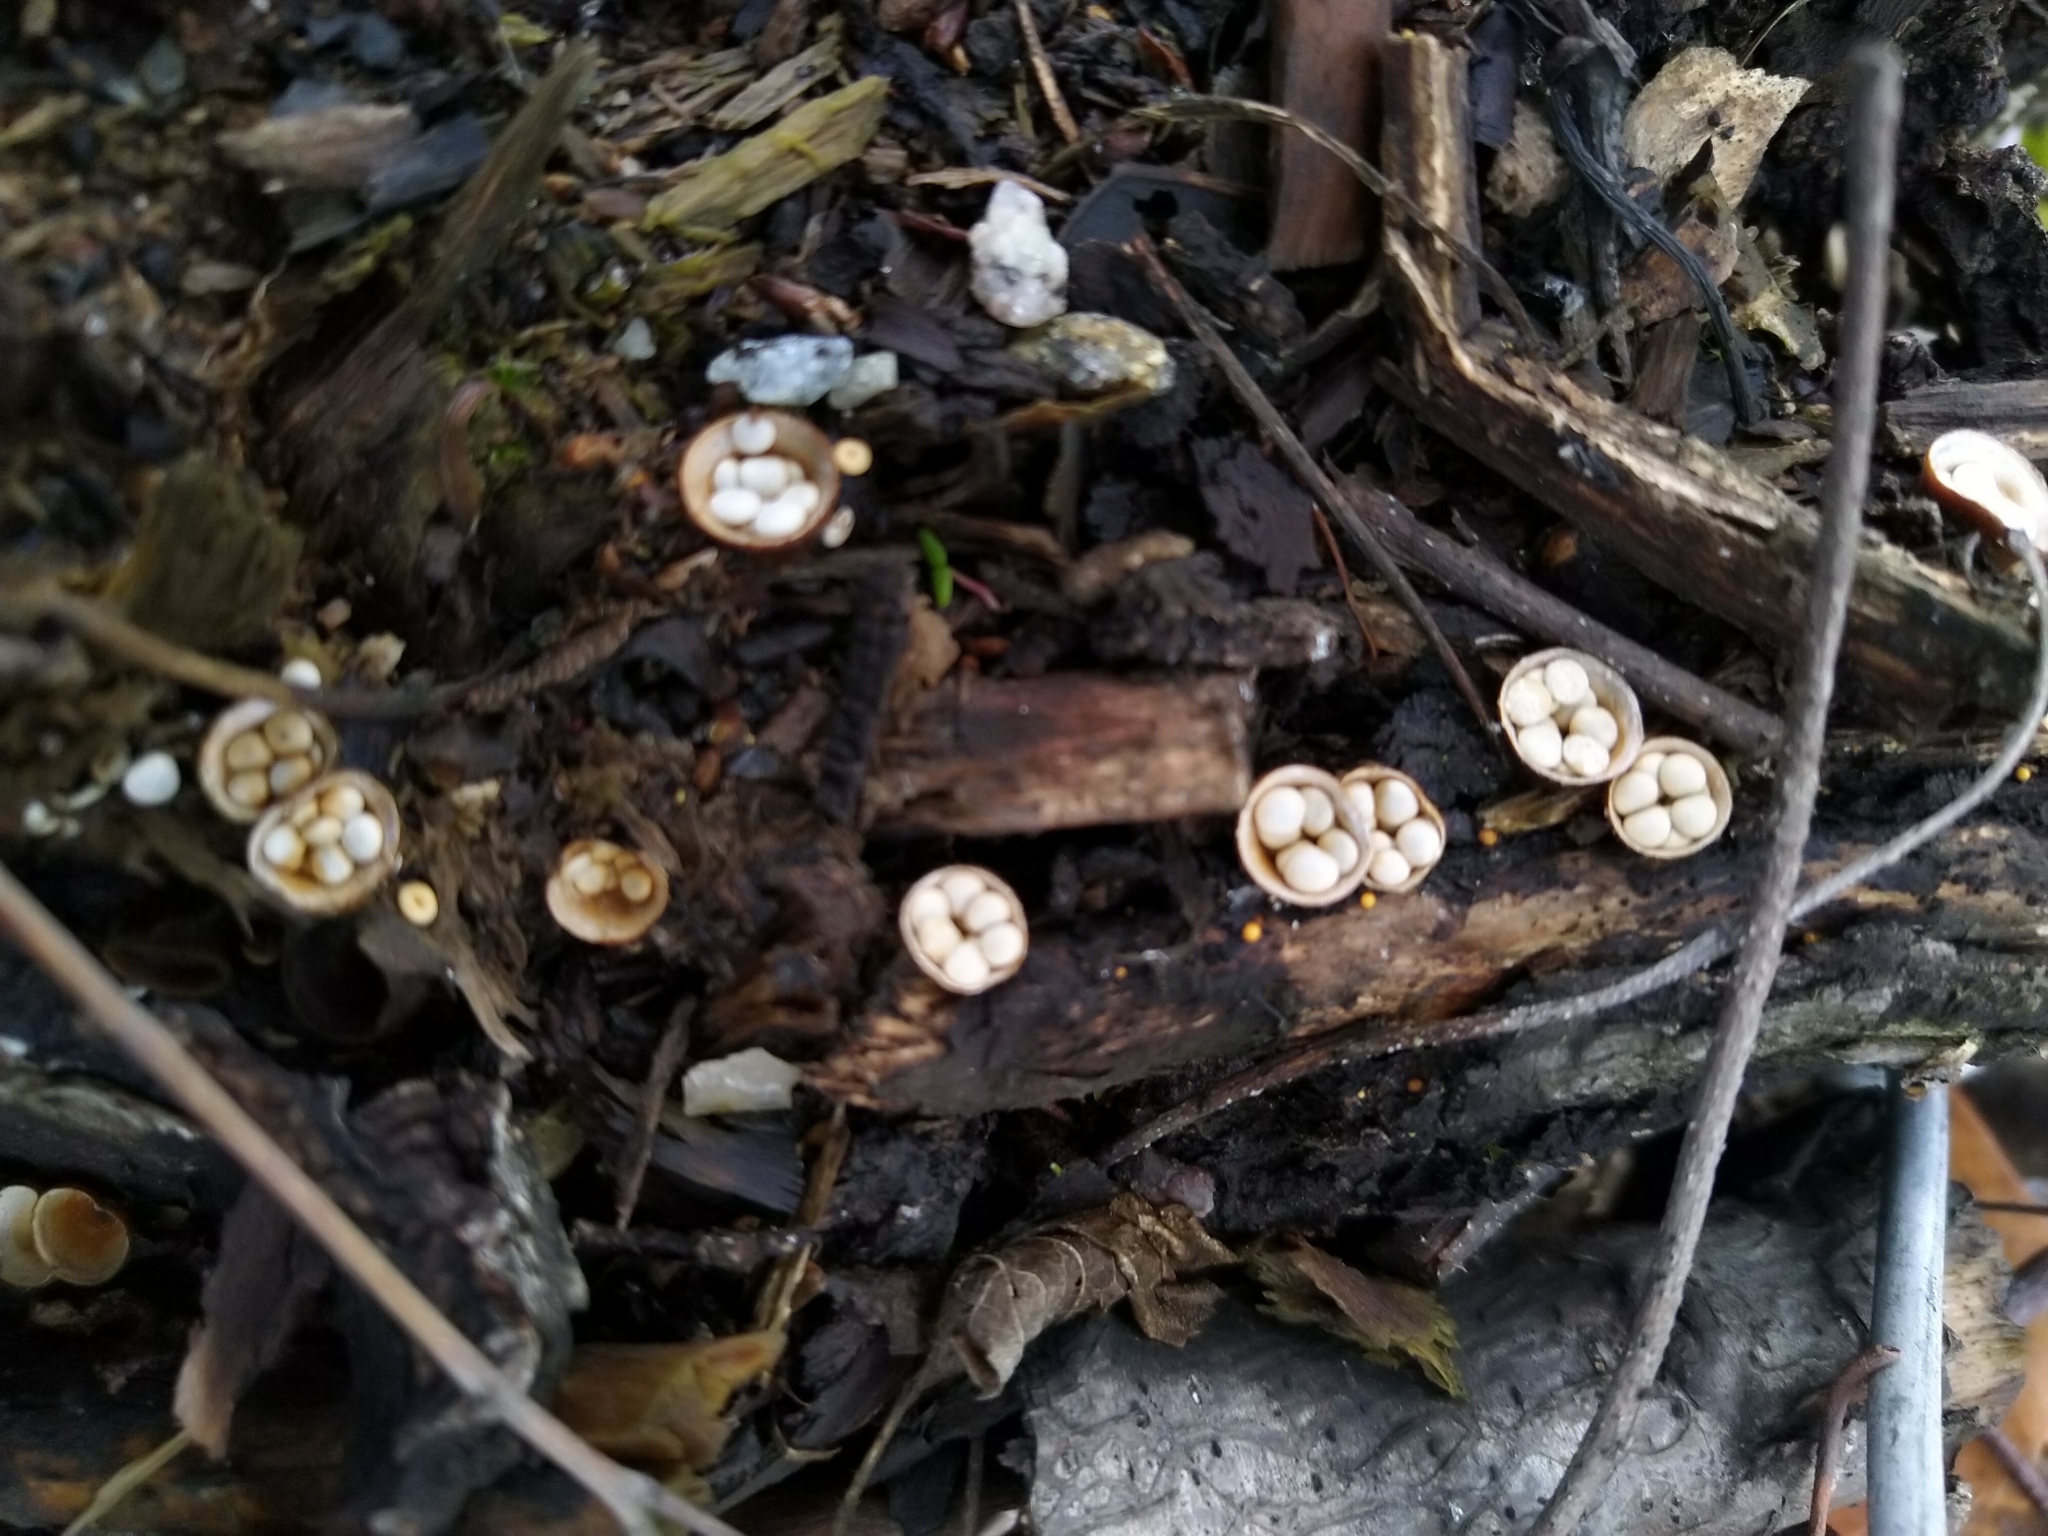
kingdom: Fungi
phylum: Basidiomycota
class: Agaricomycetes
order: Agaricales
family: Nidulariaceae
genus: Crucibulum
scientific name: Crucibulum laeve
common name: Common bird's nest
